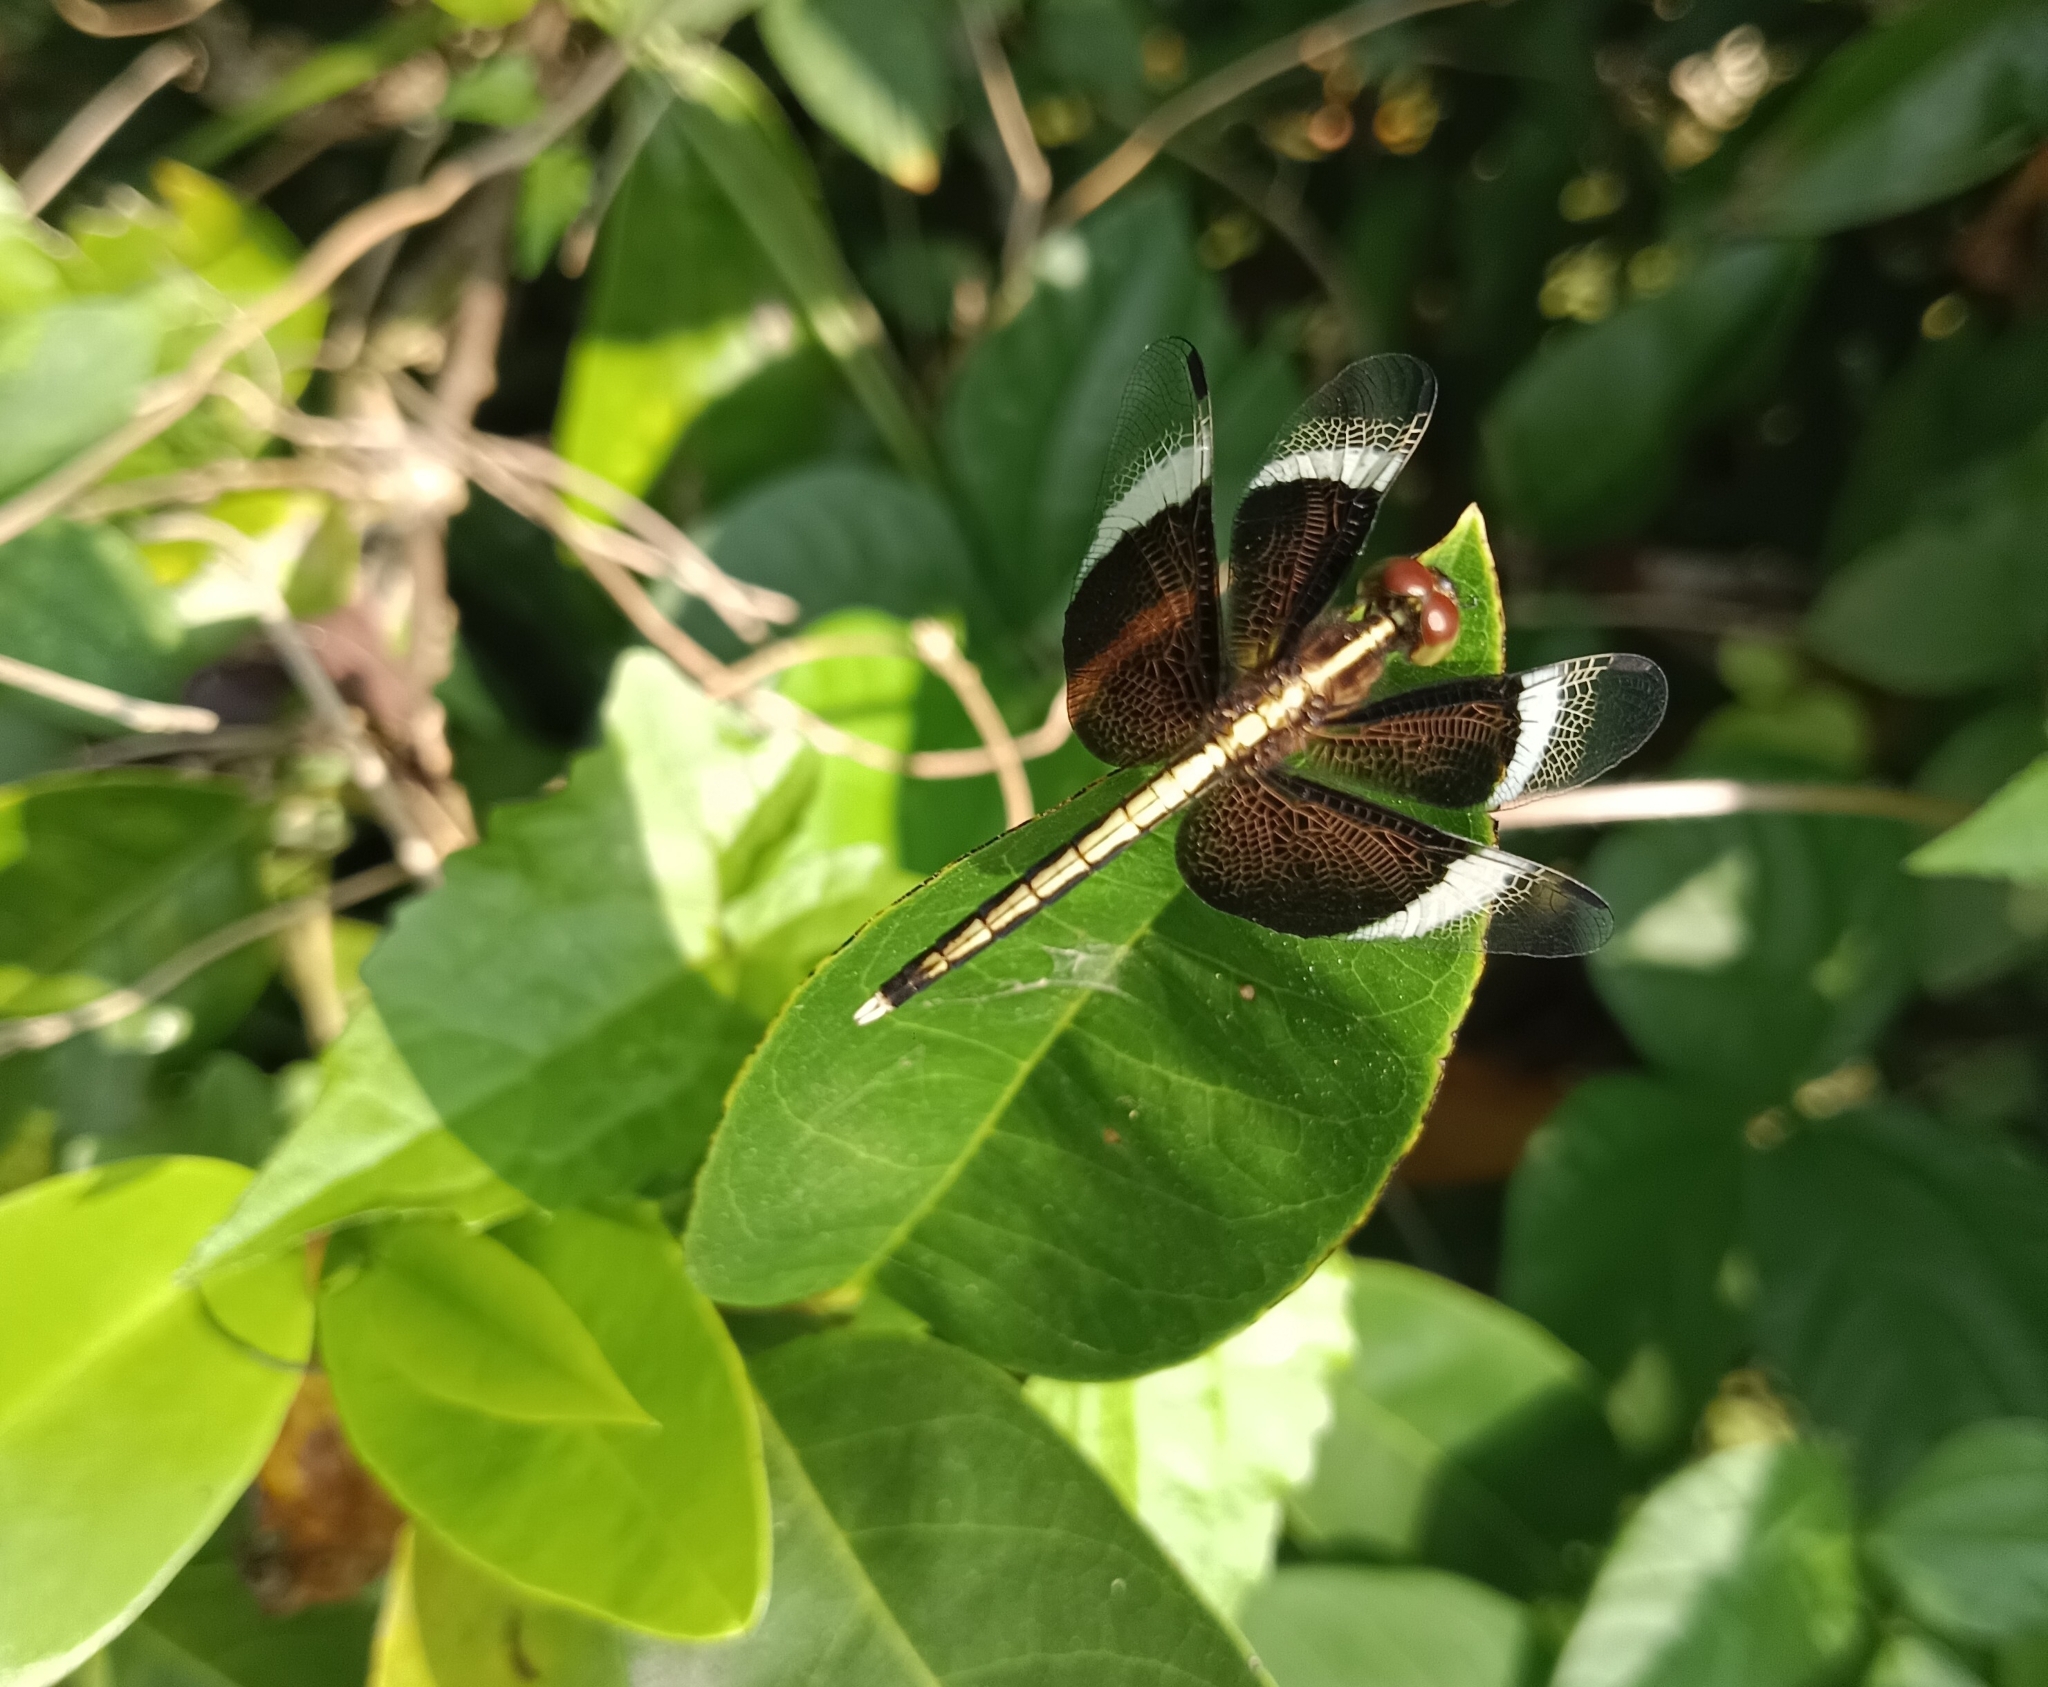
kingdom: Animalia
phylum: Arthropoda
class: Insecta
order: Odonata
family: Libellulidae
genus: Neurothemis
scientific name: Neurothemis tullia
